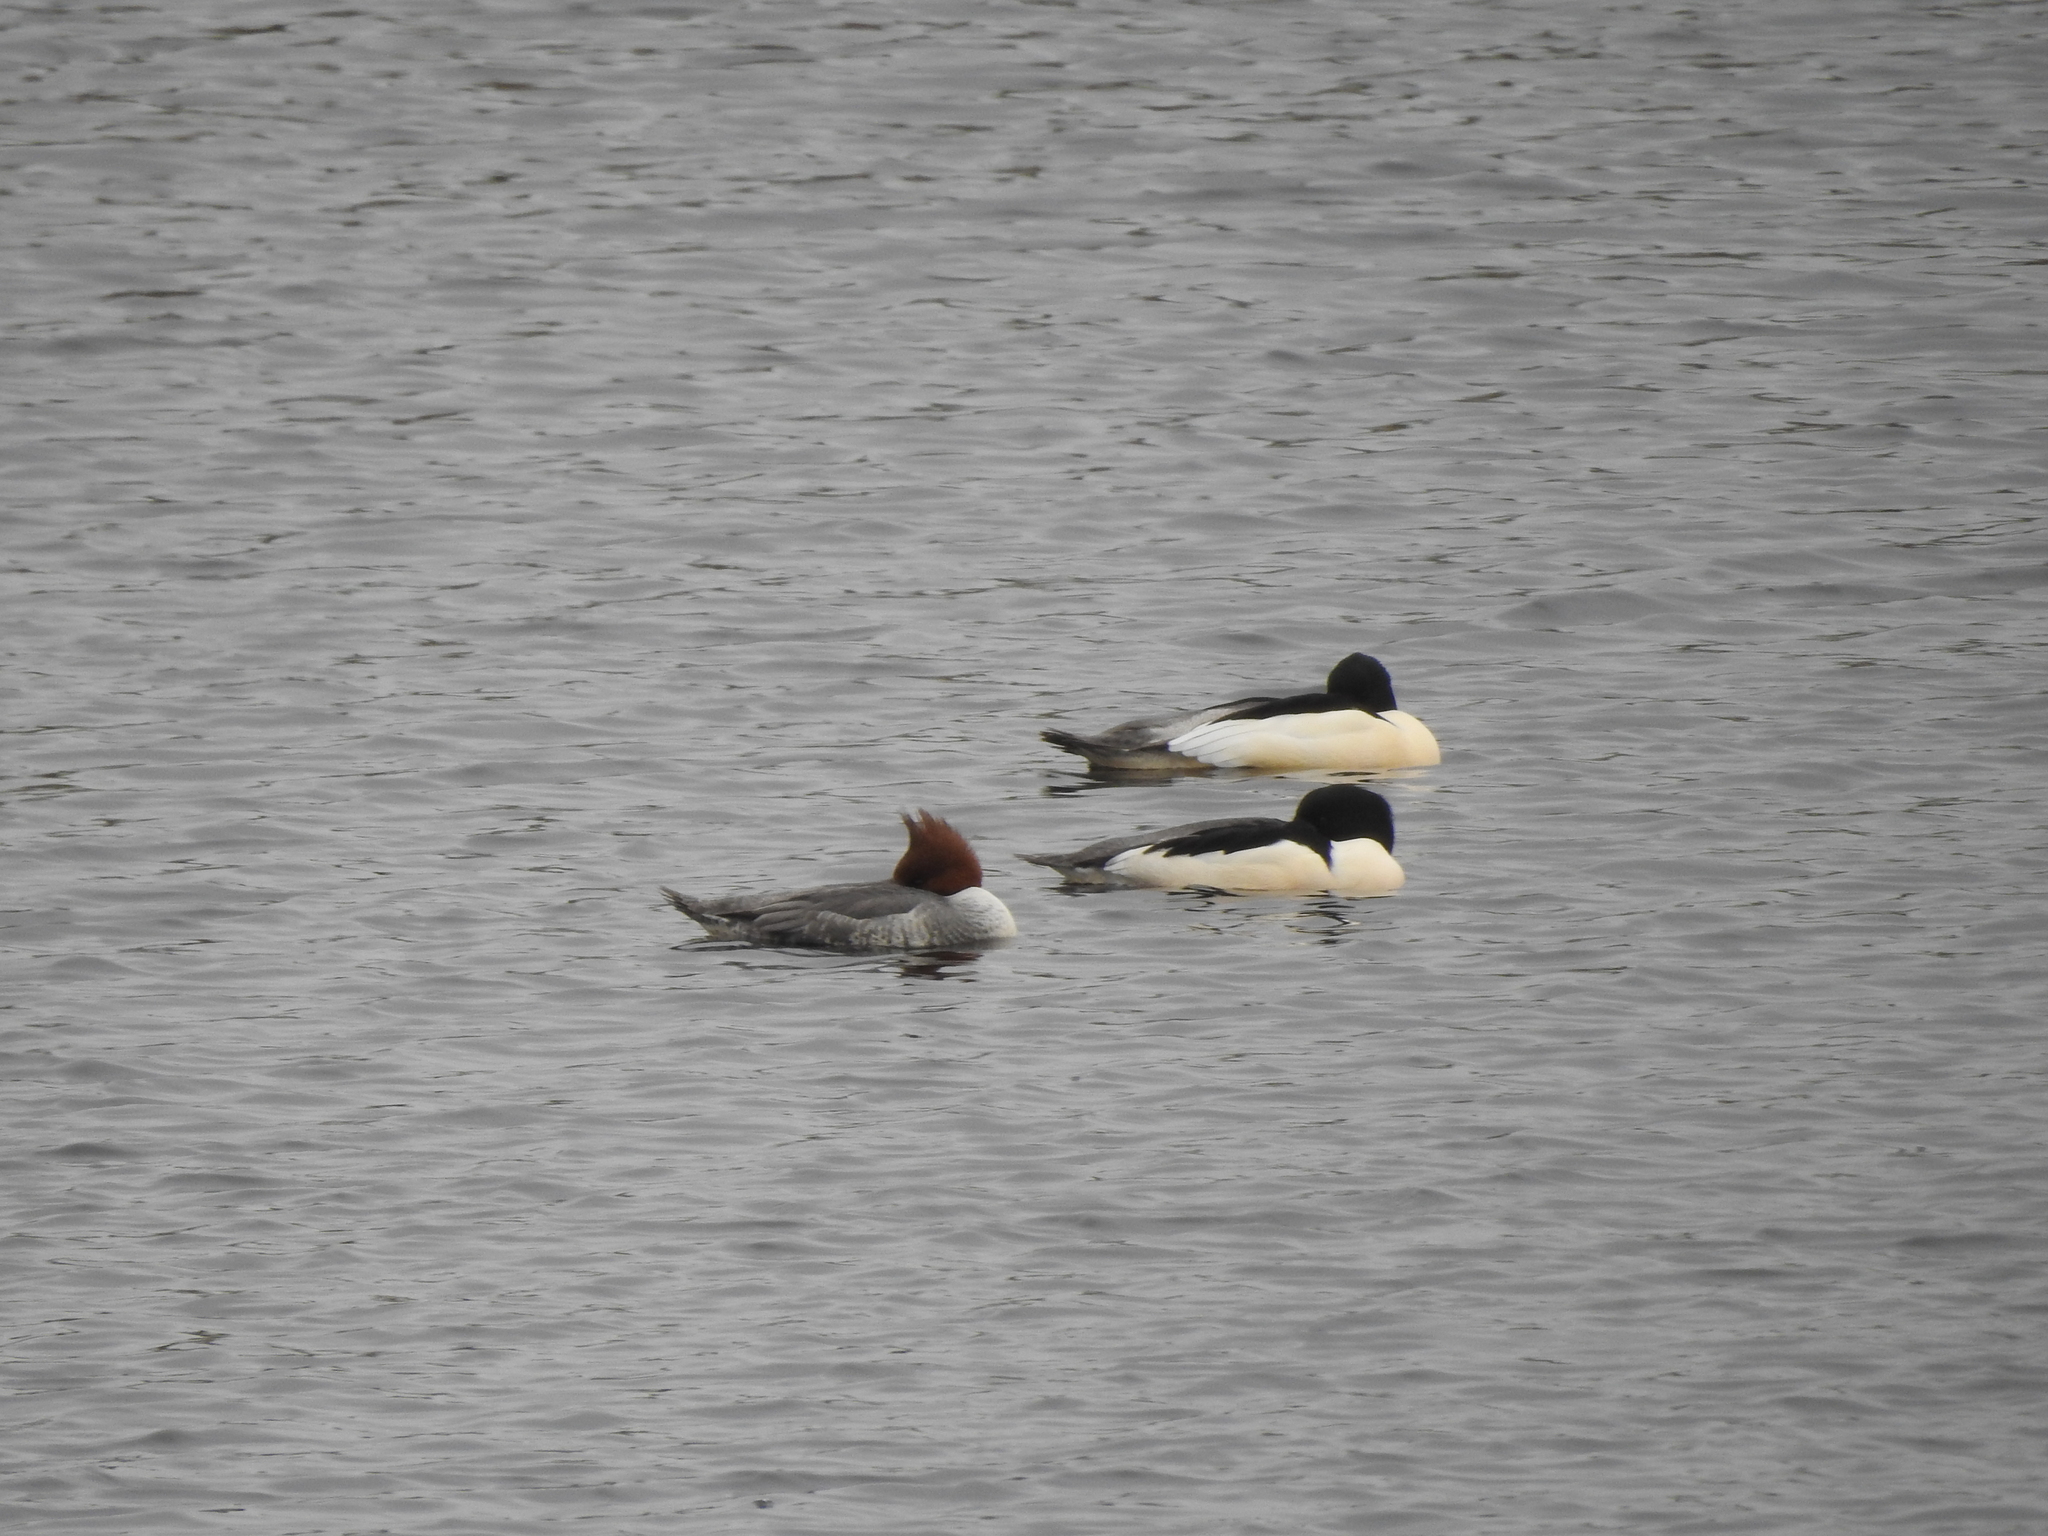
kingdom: Animalia
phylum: Chordata
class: Aves
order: Anseriformes
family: Anatidae
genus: Mergus
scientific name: Mergus merganser
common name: Common merganser
